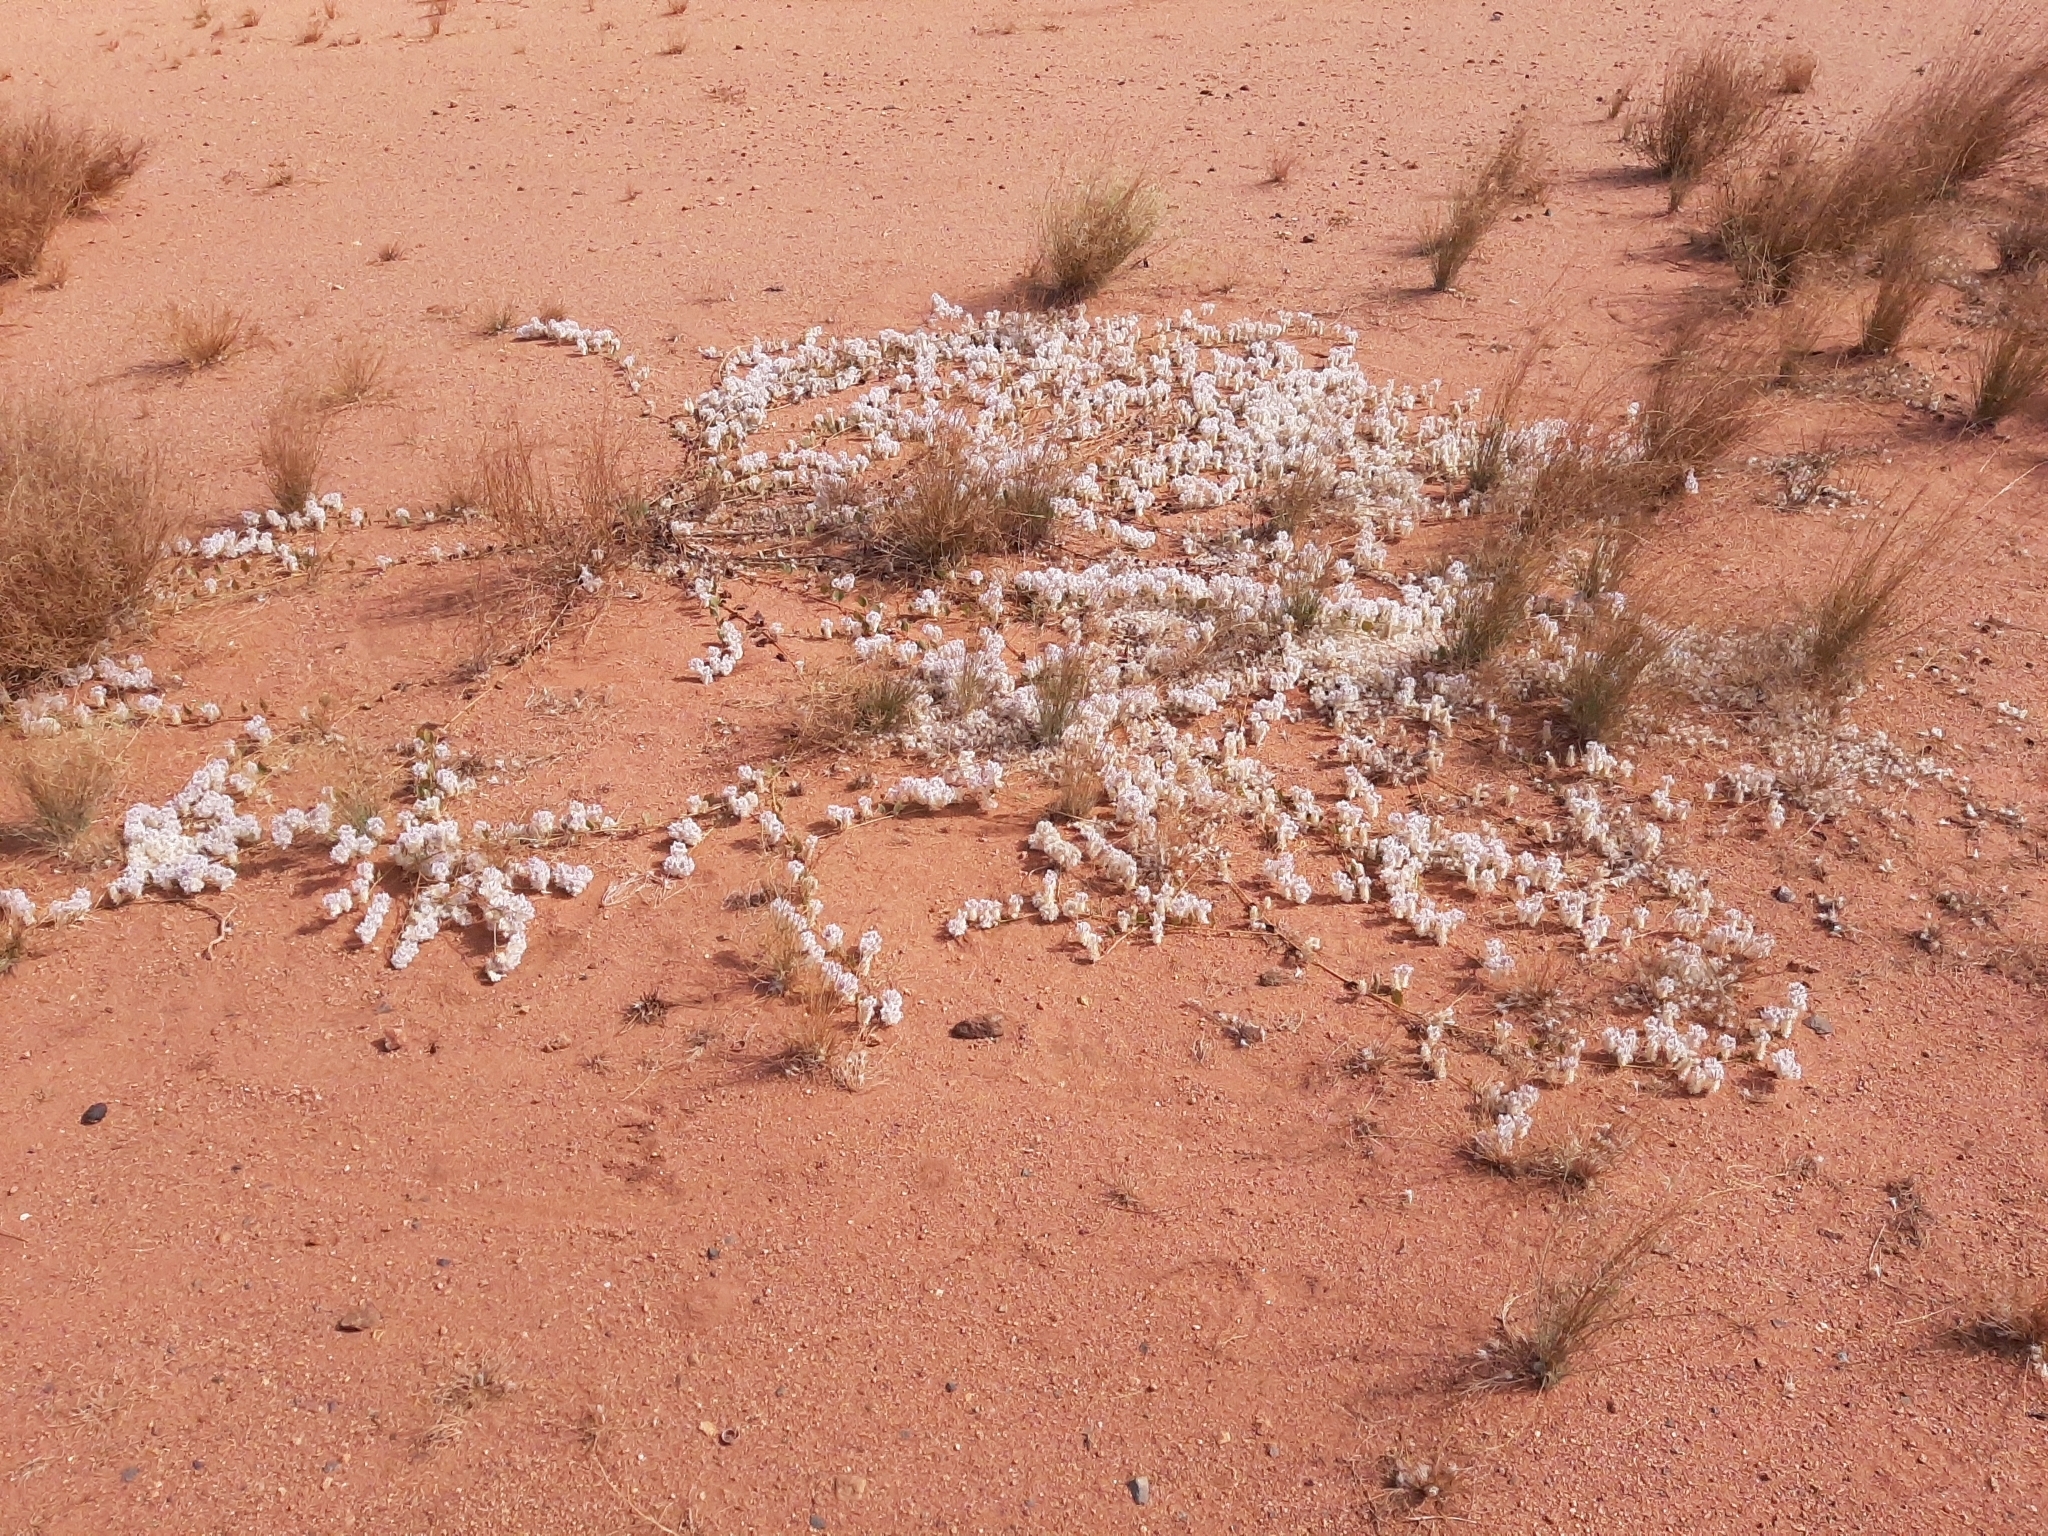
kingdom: Plantae
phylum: Tracheophyta
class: Magnoliopsida
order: Caryophyllales
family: Amaranthaceae
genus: Ptilotus
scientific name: Ptilotus axillaris
